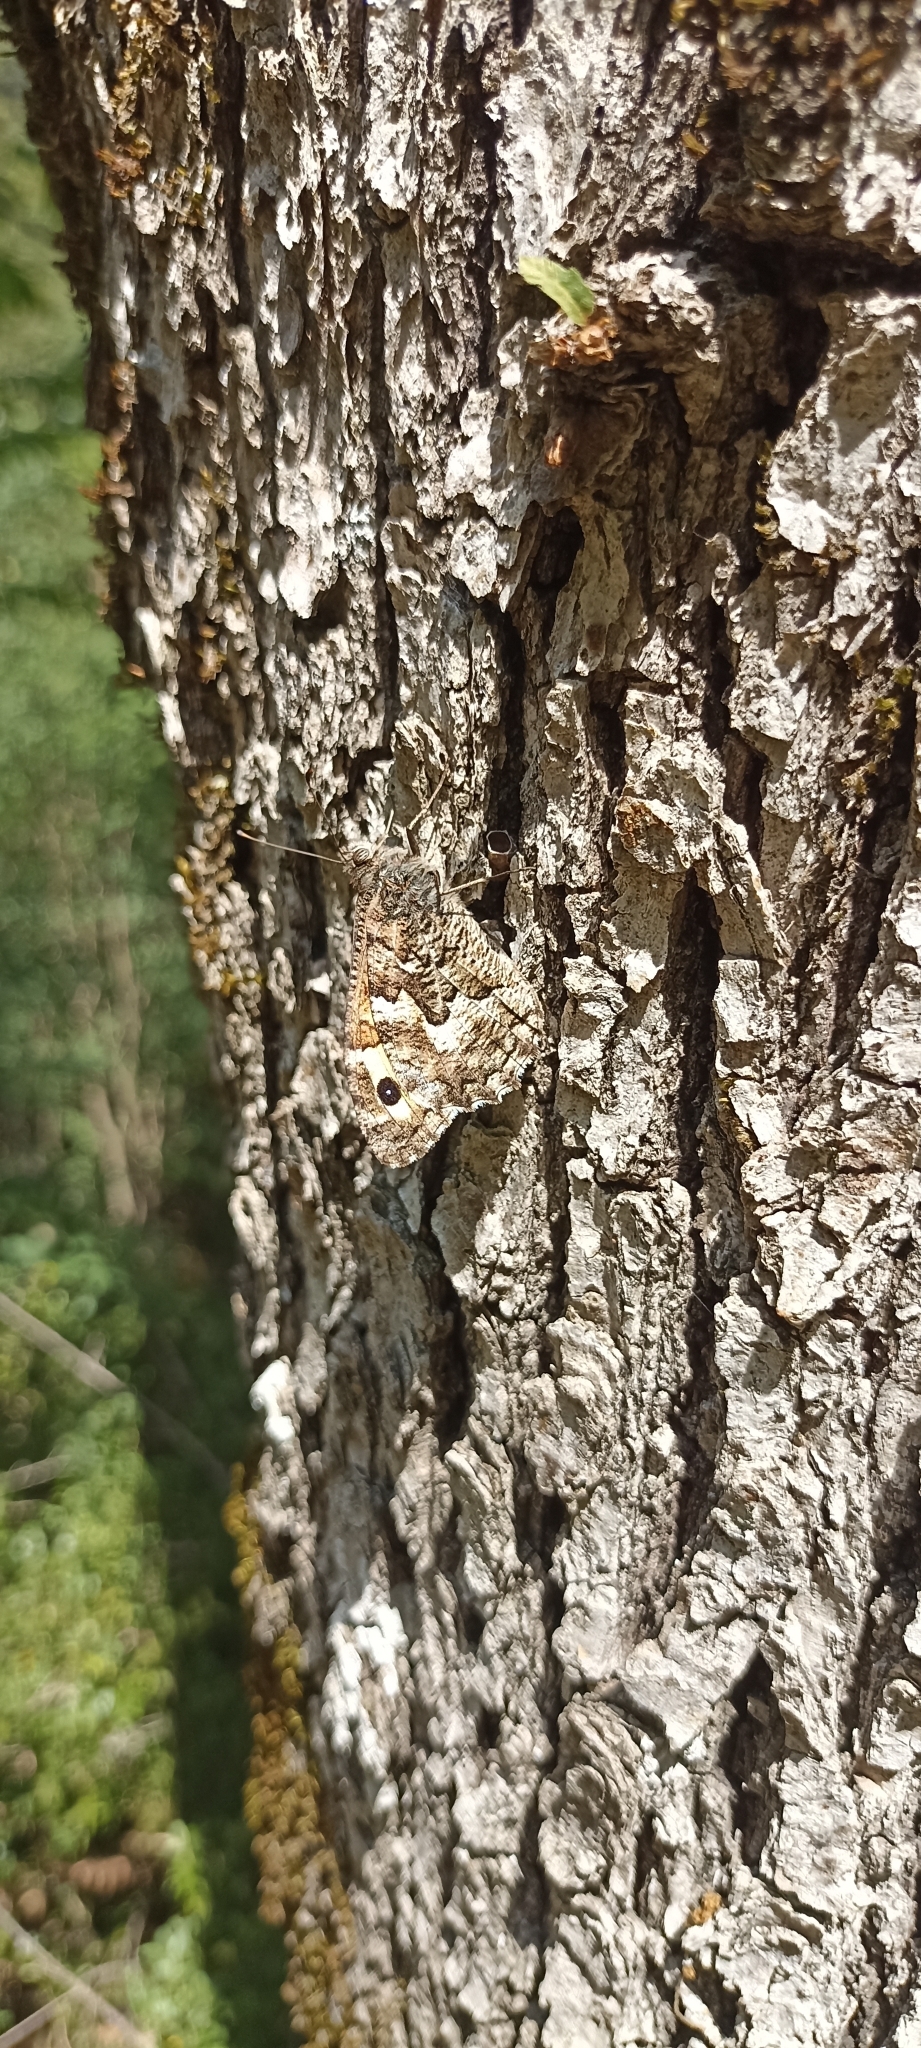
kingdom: Animalia
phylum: Arthropoda
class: Insecta
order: Lepidoptera
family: Nymphalidae
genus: Hipparchia
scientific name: Hipparchia semele
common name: Grayling
